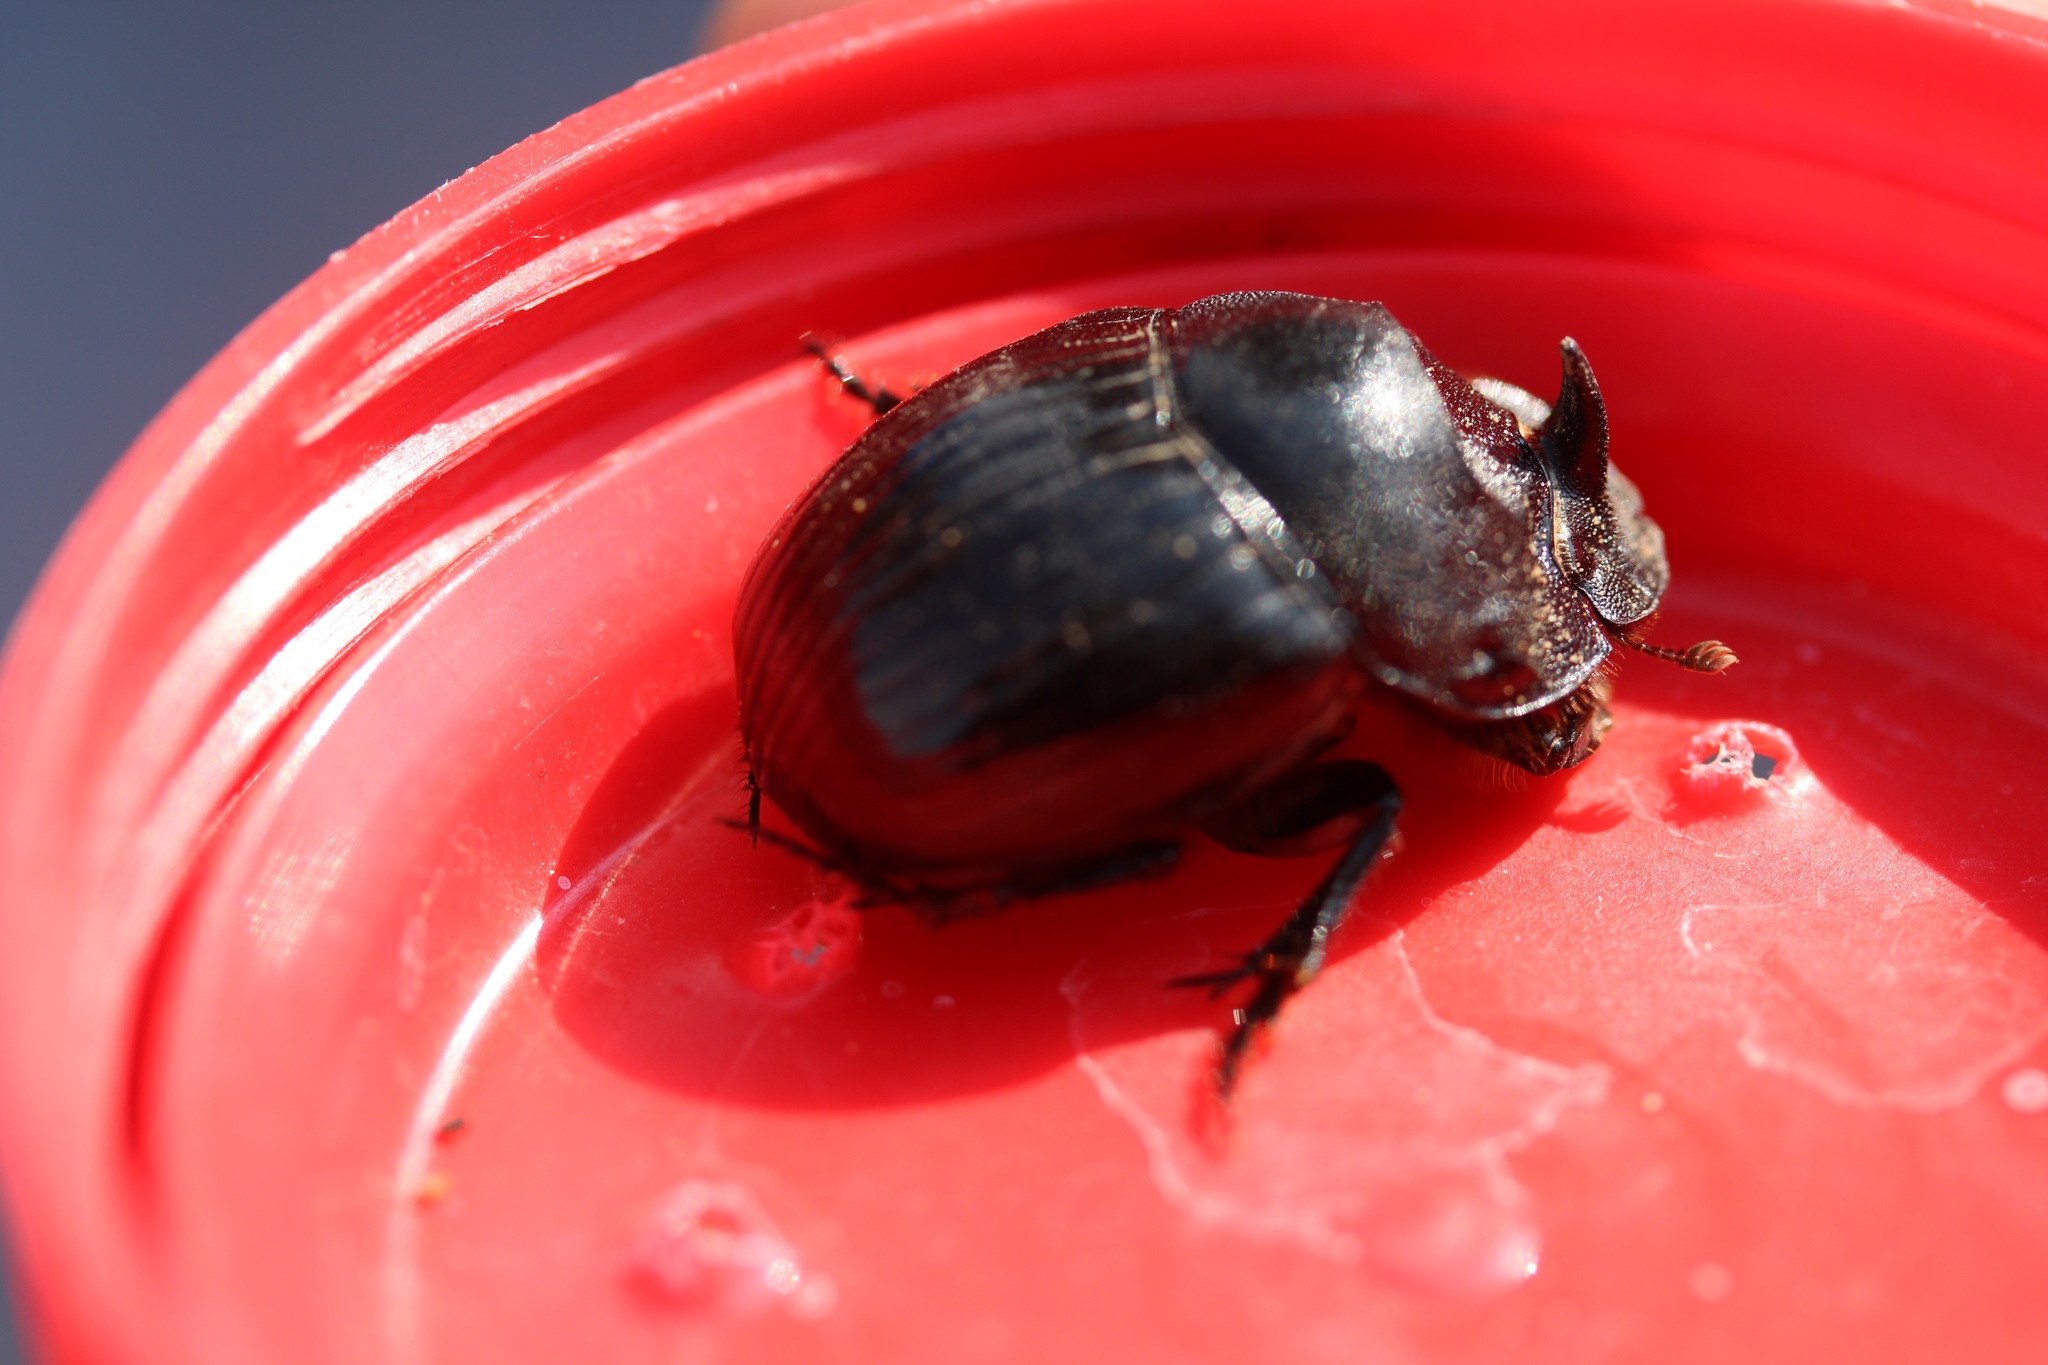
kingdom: Animalia
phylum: Arthropoda
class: Insecta
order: Coleoptera
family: Scarabaeidae
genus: Copris
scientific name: Copris hispanus
